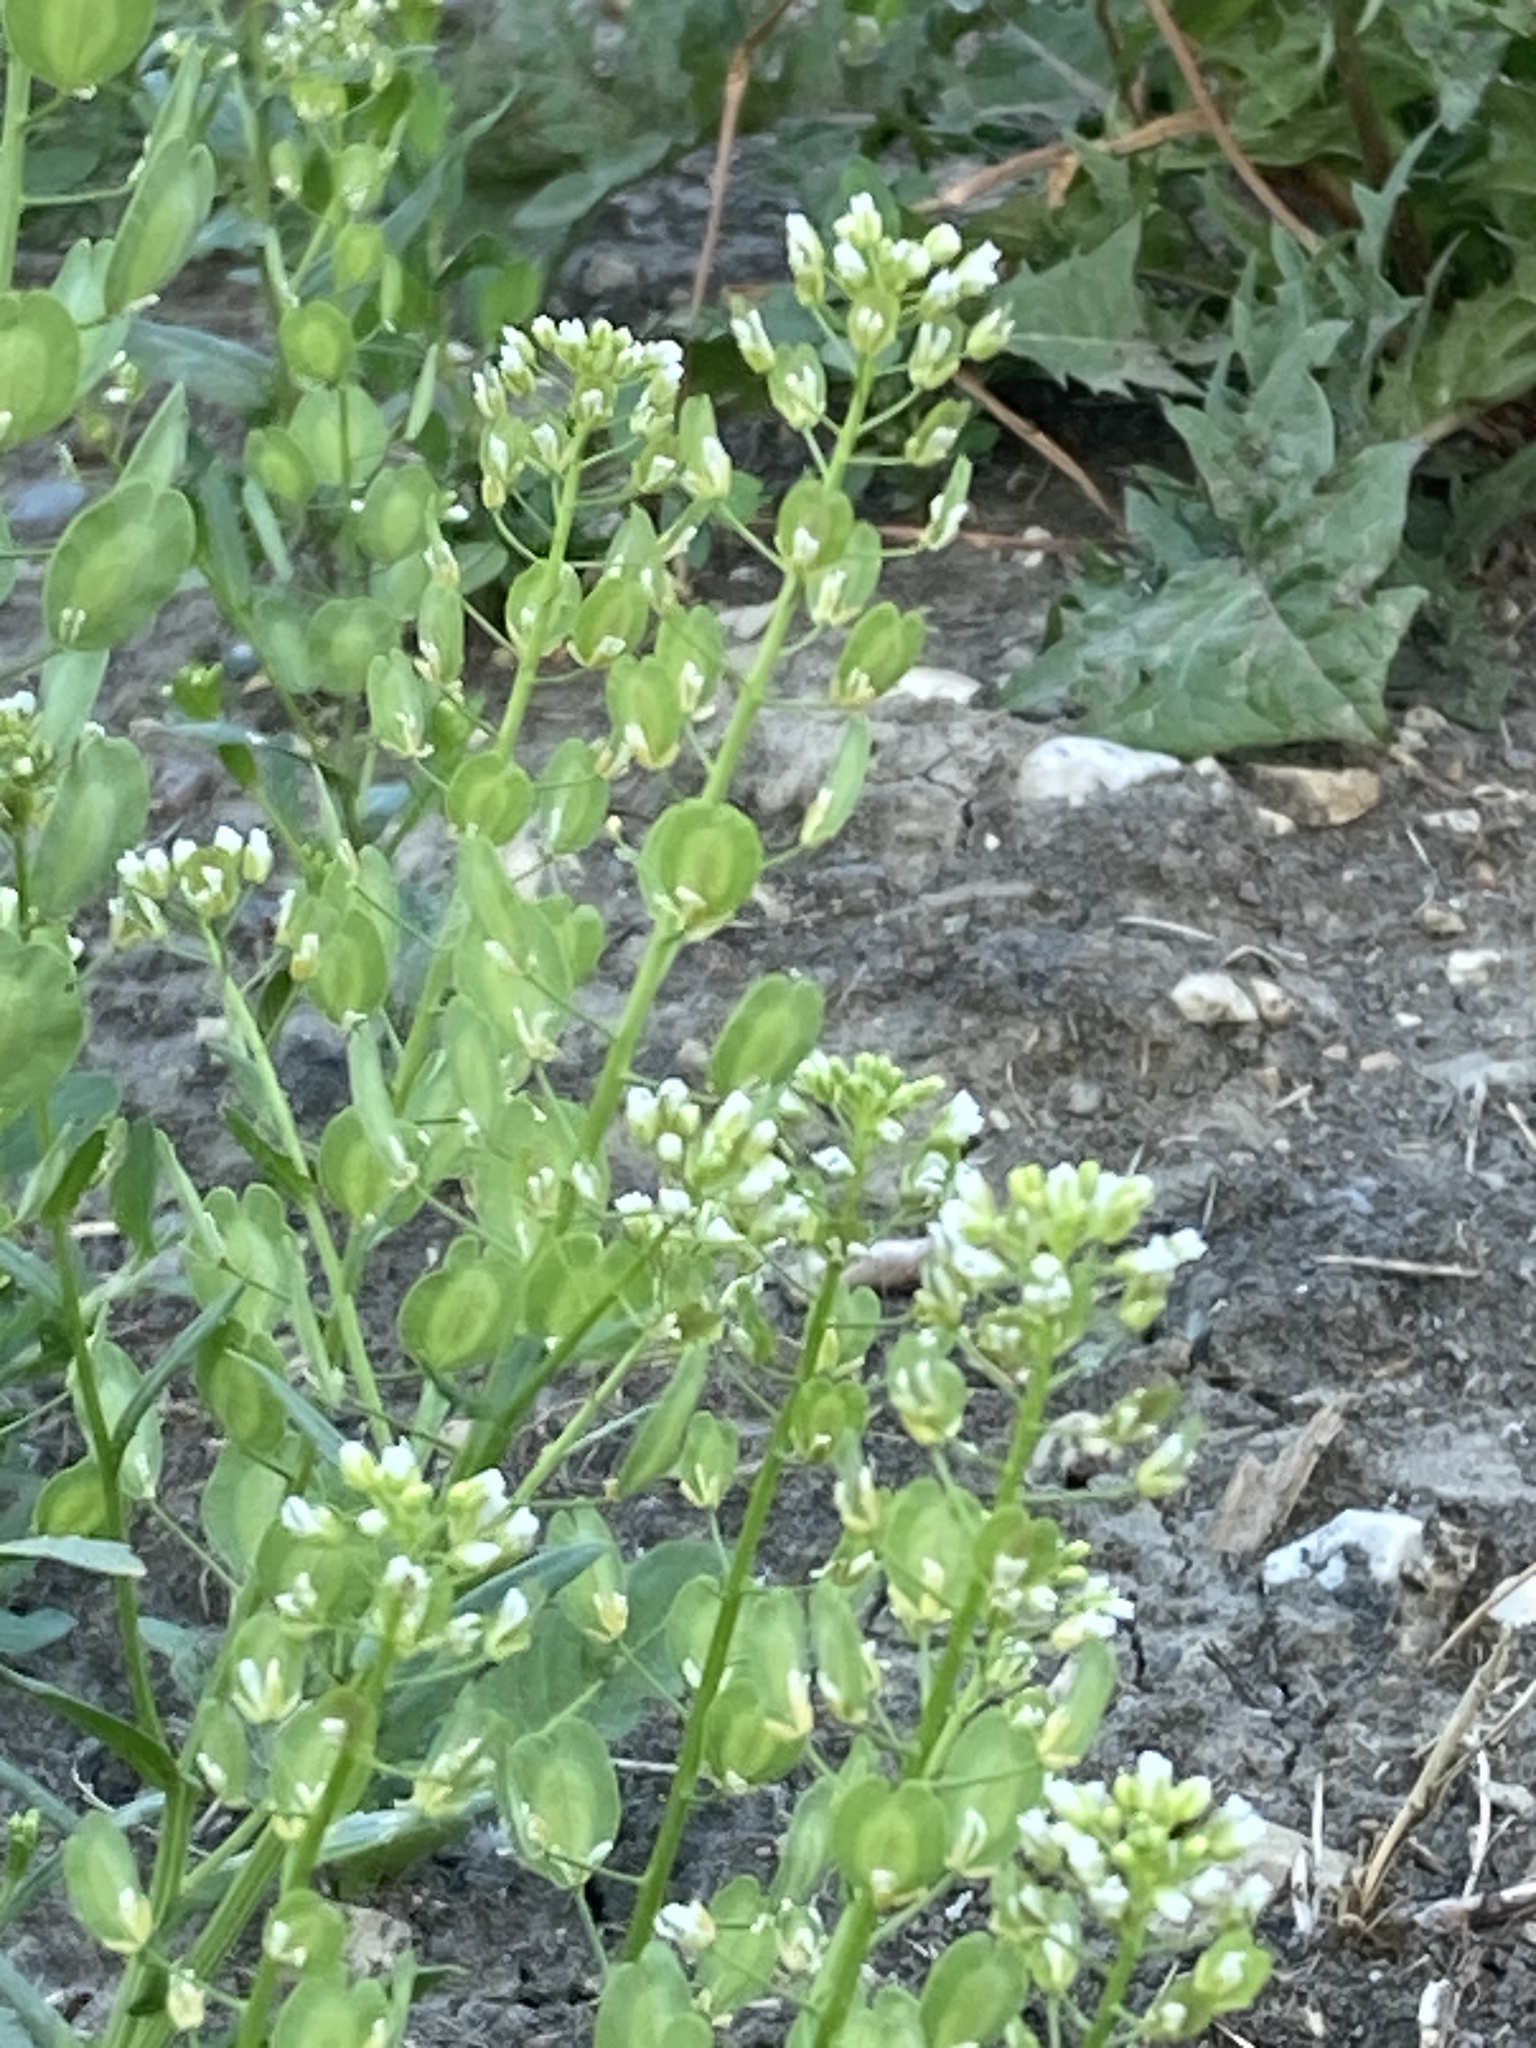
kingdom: Plantae
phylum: Tracheophyta
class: Magnoliopsida
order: Brassicales
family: Brassicaceae
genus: Thlaspi
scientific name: Thlaspi arvense
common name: Field pennycress
